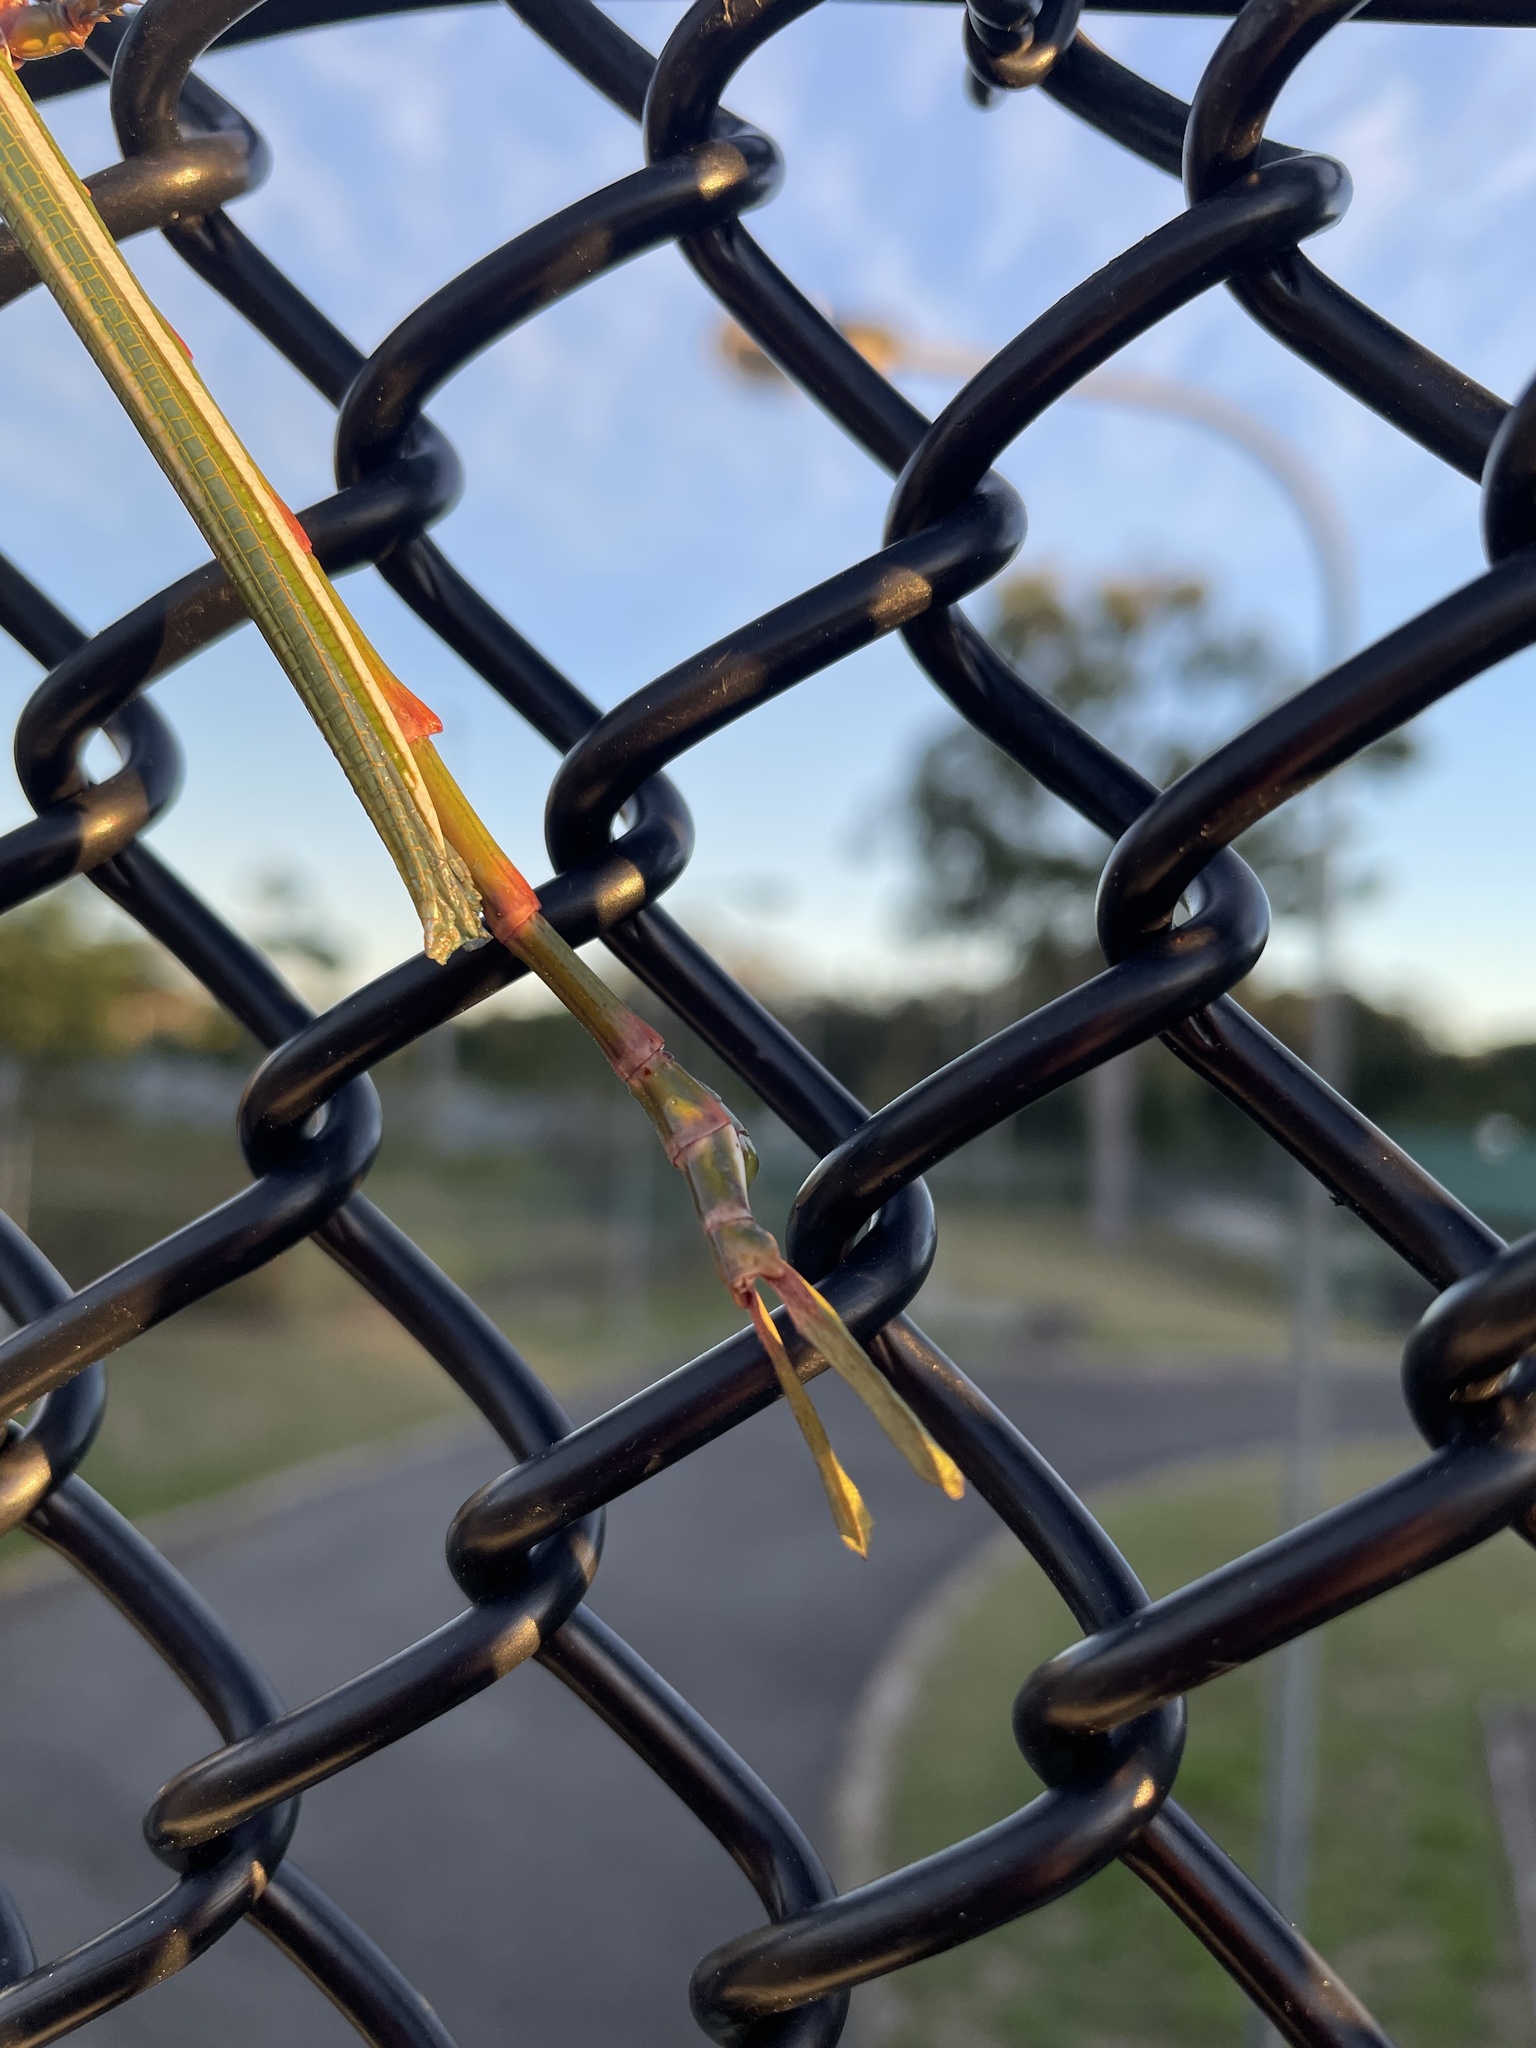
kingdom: Animalia
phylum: Arthropoda
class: Insecta
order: Phasmida
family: Phasmatidae
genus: Eurycnema
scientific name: Eurycnema goliath
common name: Goliath stick insect
